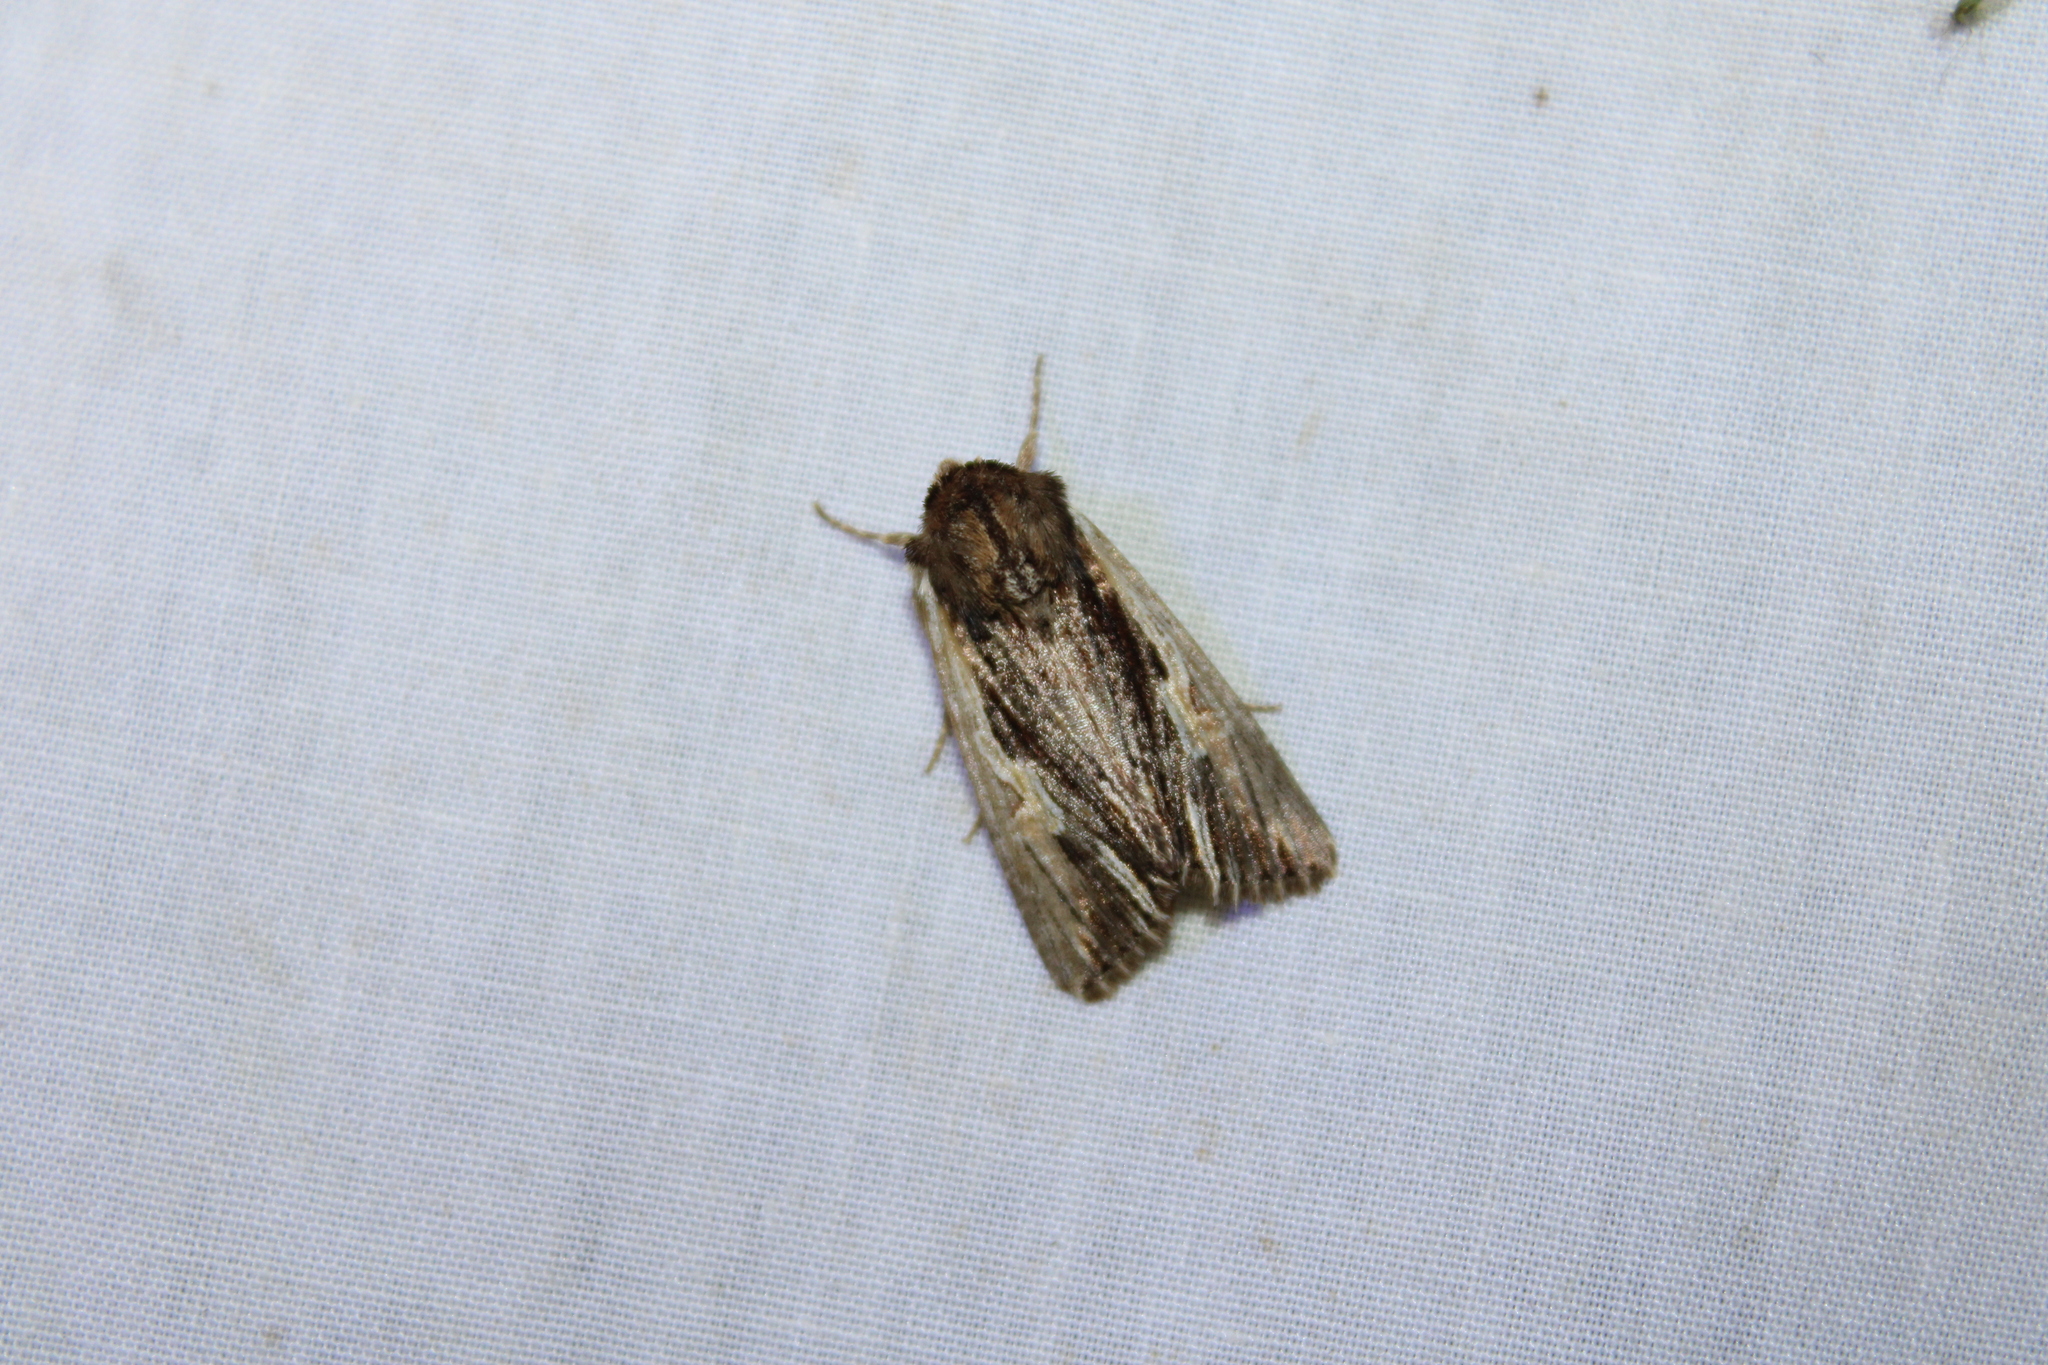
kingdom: Animalia
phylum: Arthropoda
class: Insecta
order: Lepidoptera
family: Noctuidae
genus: Achatia
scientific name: Achatia evicta
